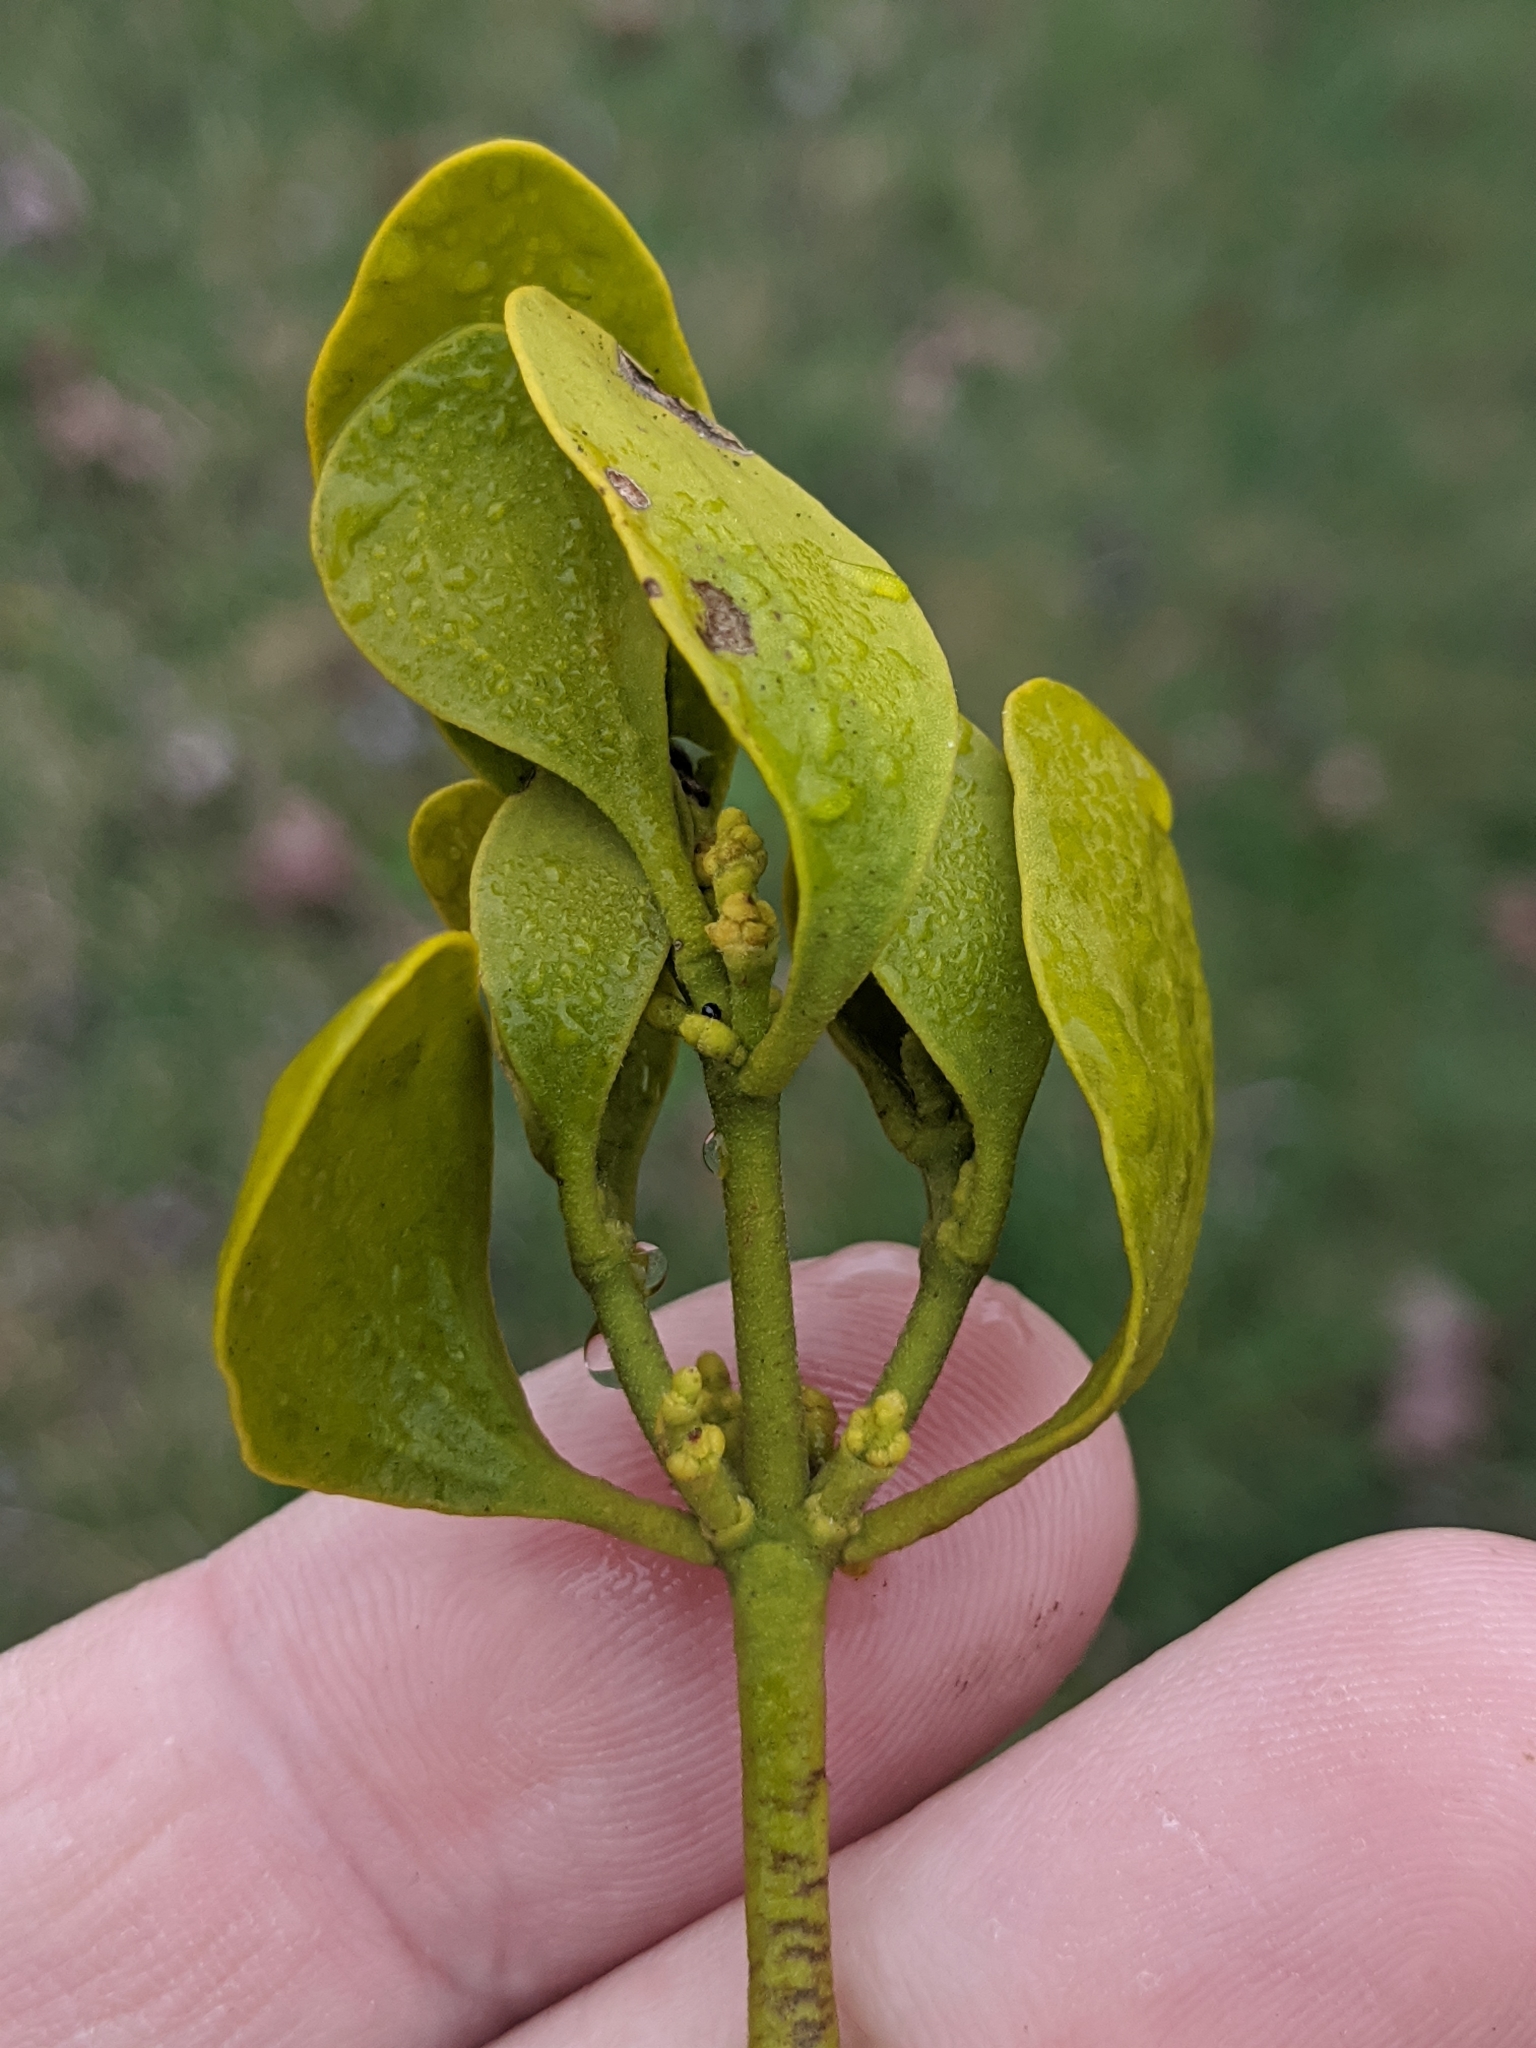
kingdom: Plantae
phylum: Tracheophyta
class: Magnoliopsida
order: Santalales
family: Viscaceae
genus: Phoradendron
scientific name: Phoradendron leucarpum
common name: Pacific mistletoe
